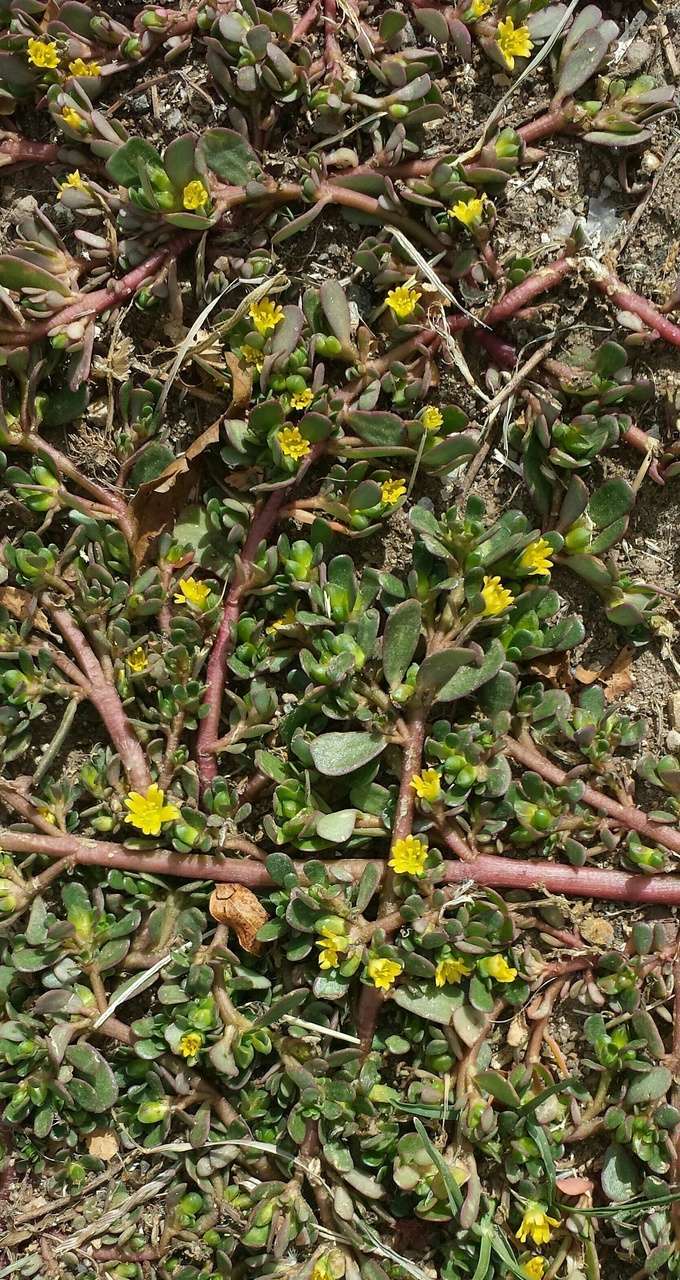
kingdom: Plantae
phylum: Tracheophyta
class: Magnoliopsida
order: Caryophyllales
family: Portulacaceae
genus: Portulaca
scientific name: Portulaca oleracea
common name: Common purslane
